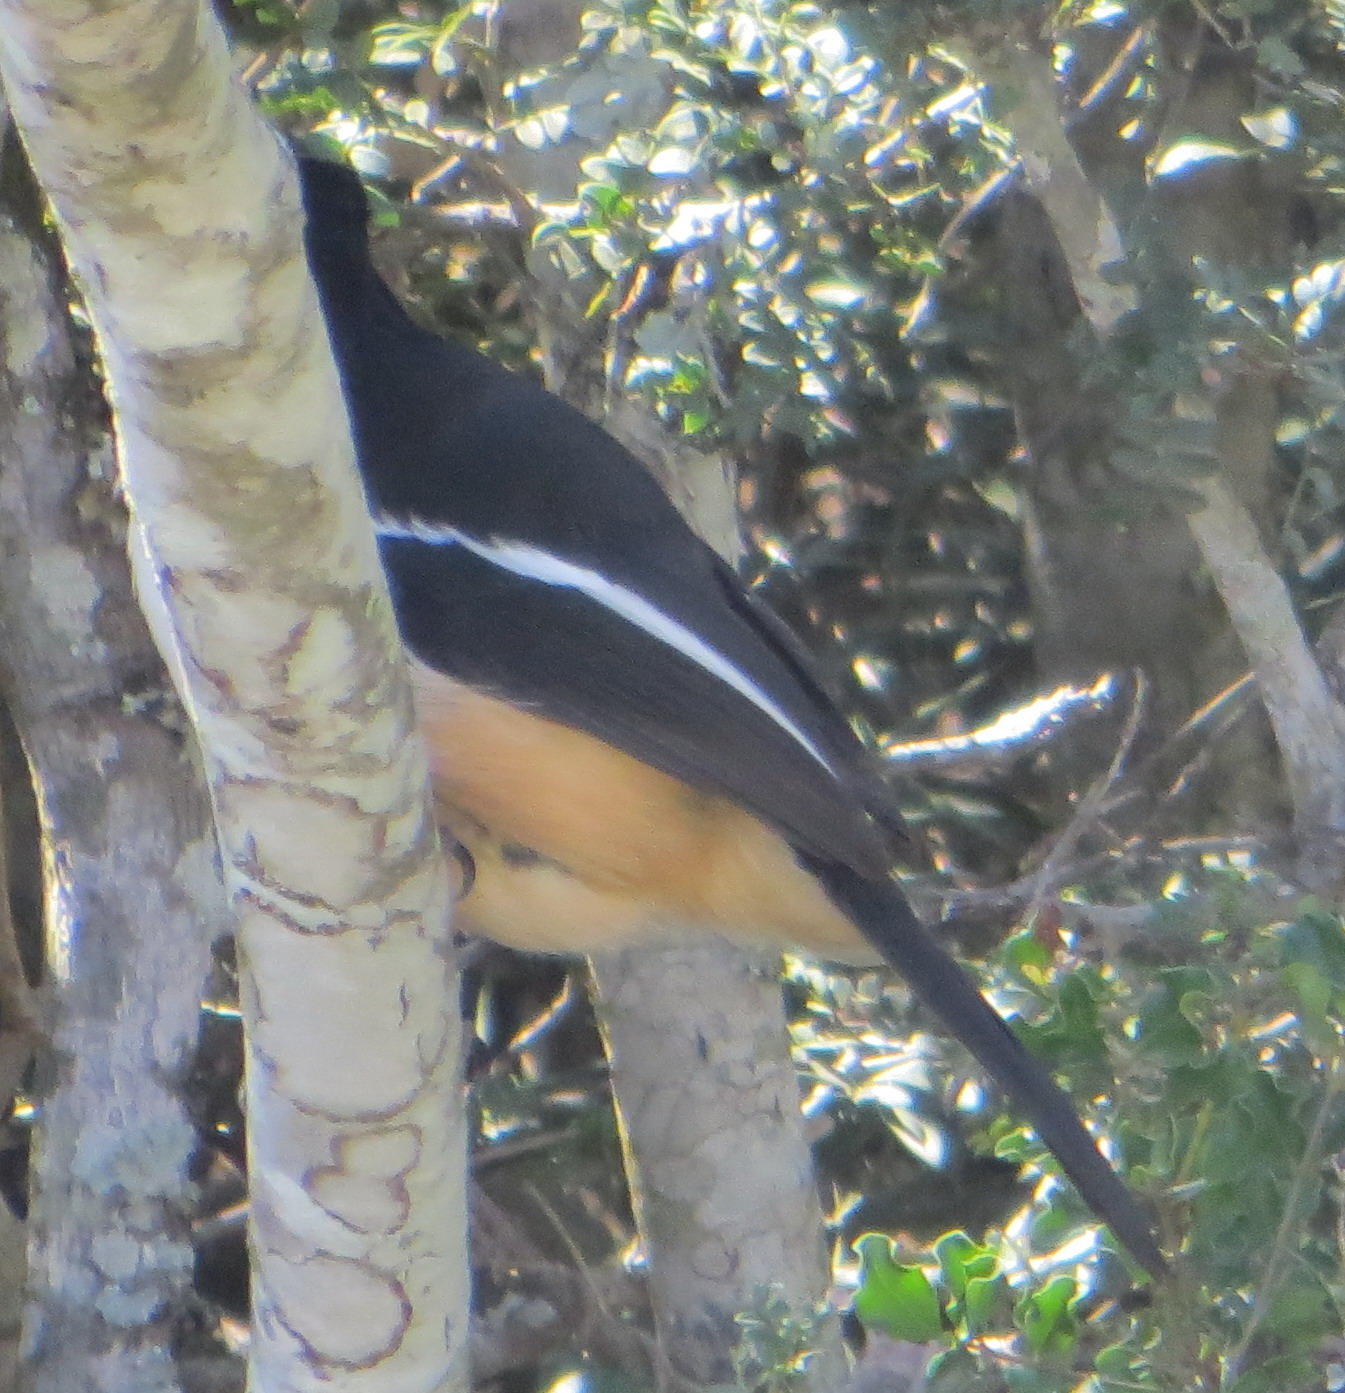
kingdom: Animalia
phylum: Chordata
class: Aves
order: Passeriformes
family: Malaconotidae
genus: Laniarius
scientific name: Laniarius ferrugineus
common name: Southern boubou
